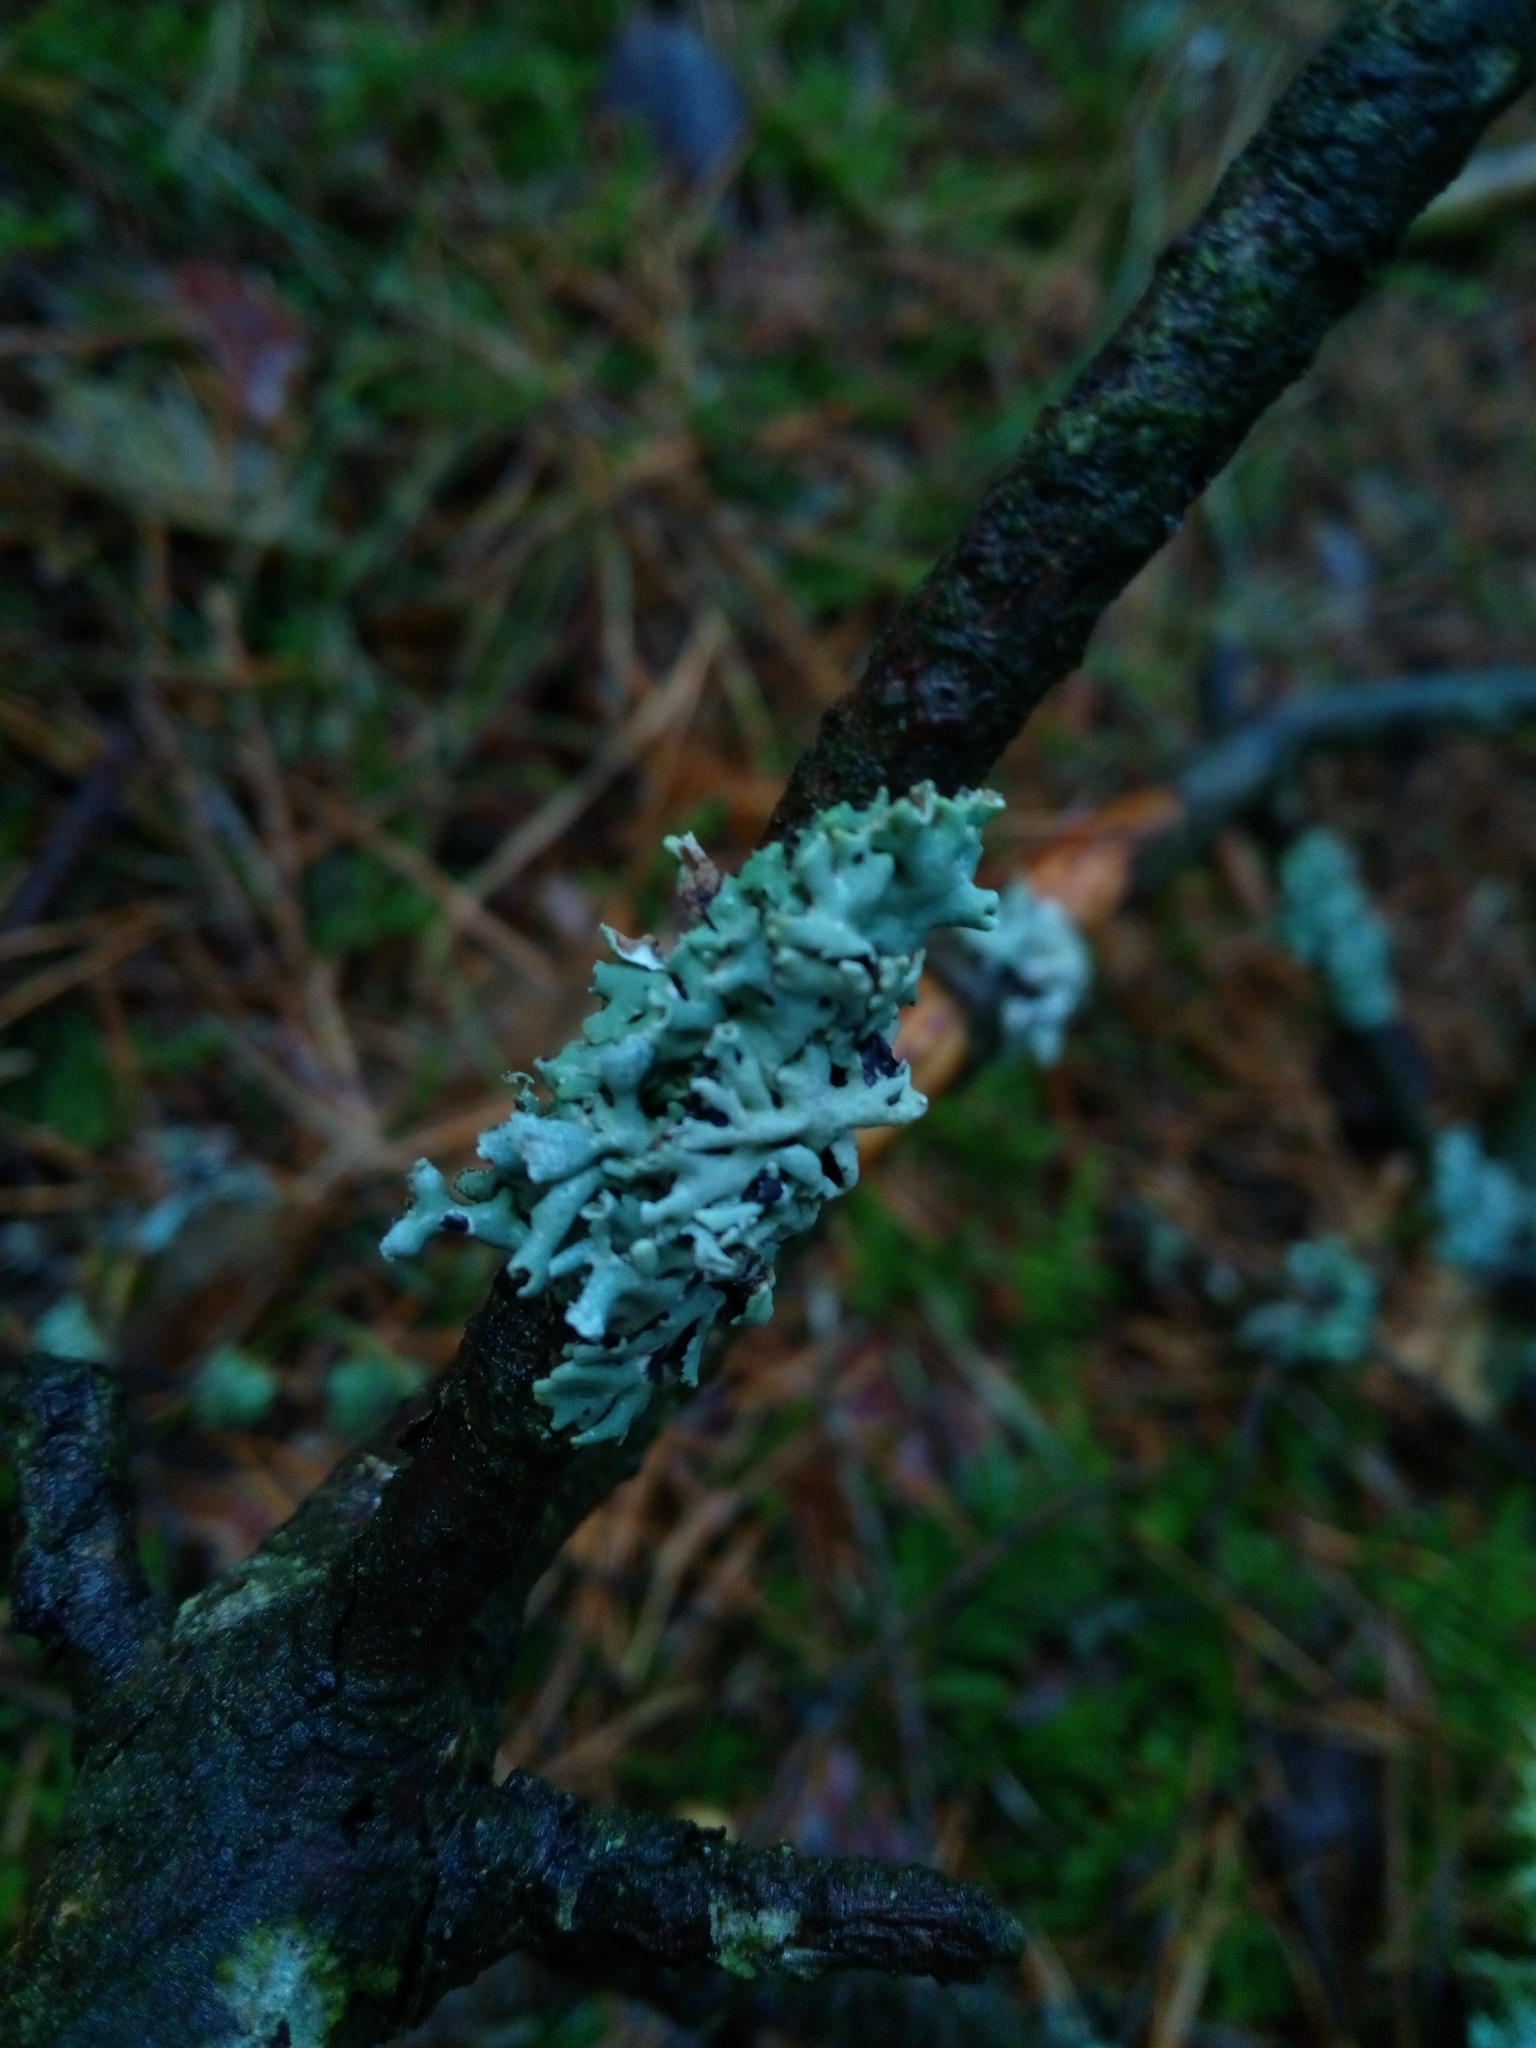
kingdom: Fungi
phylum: Ascomycota
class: Lecanoromycetes
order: Lecanorales
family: Parmeliaceae
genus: Hypogymnia
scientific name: Hypogymnia physodes
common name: Dark crottle
